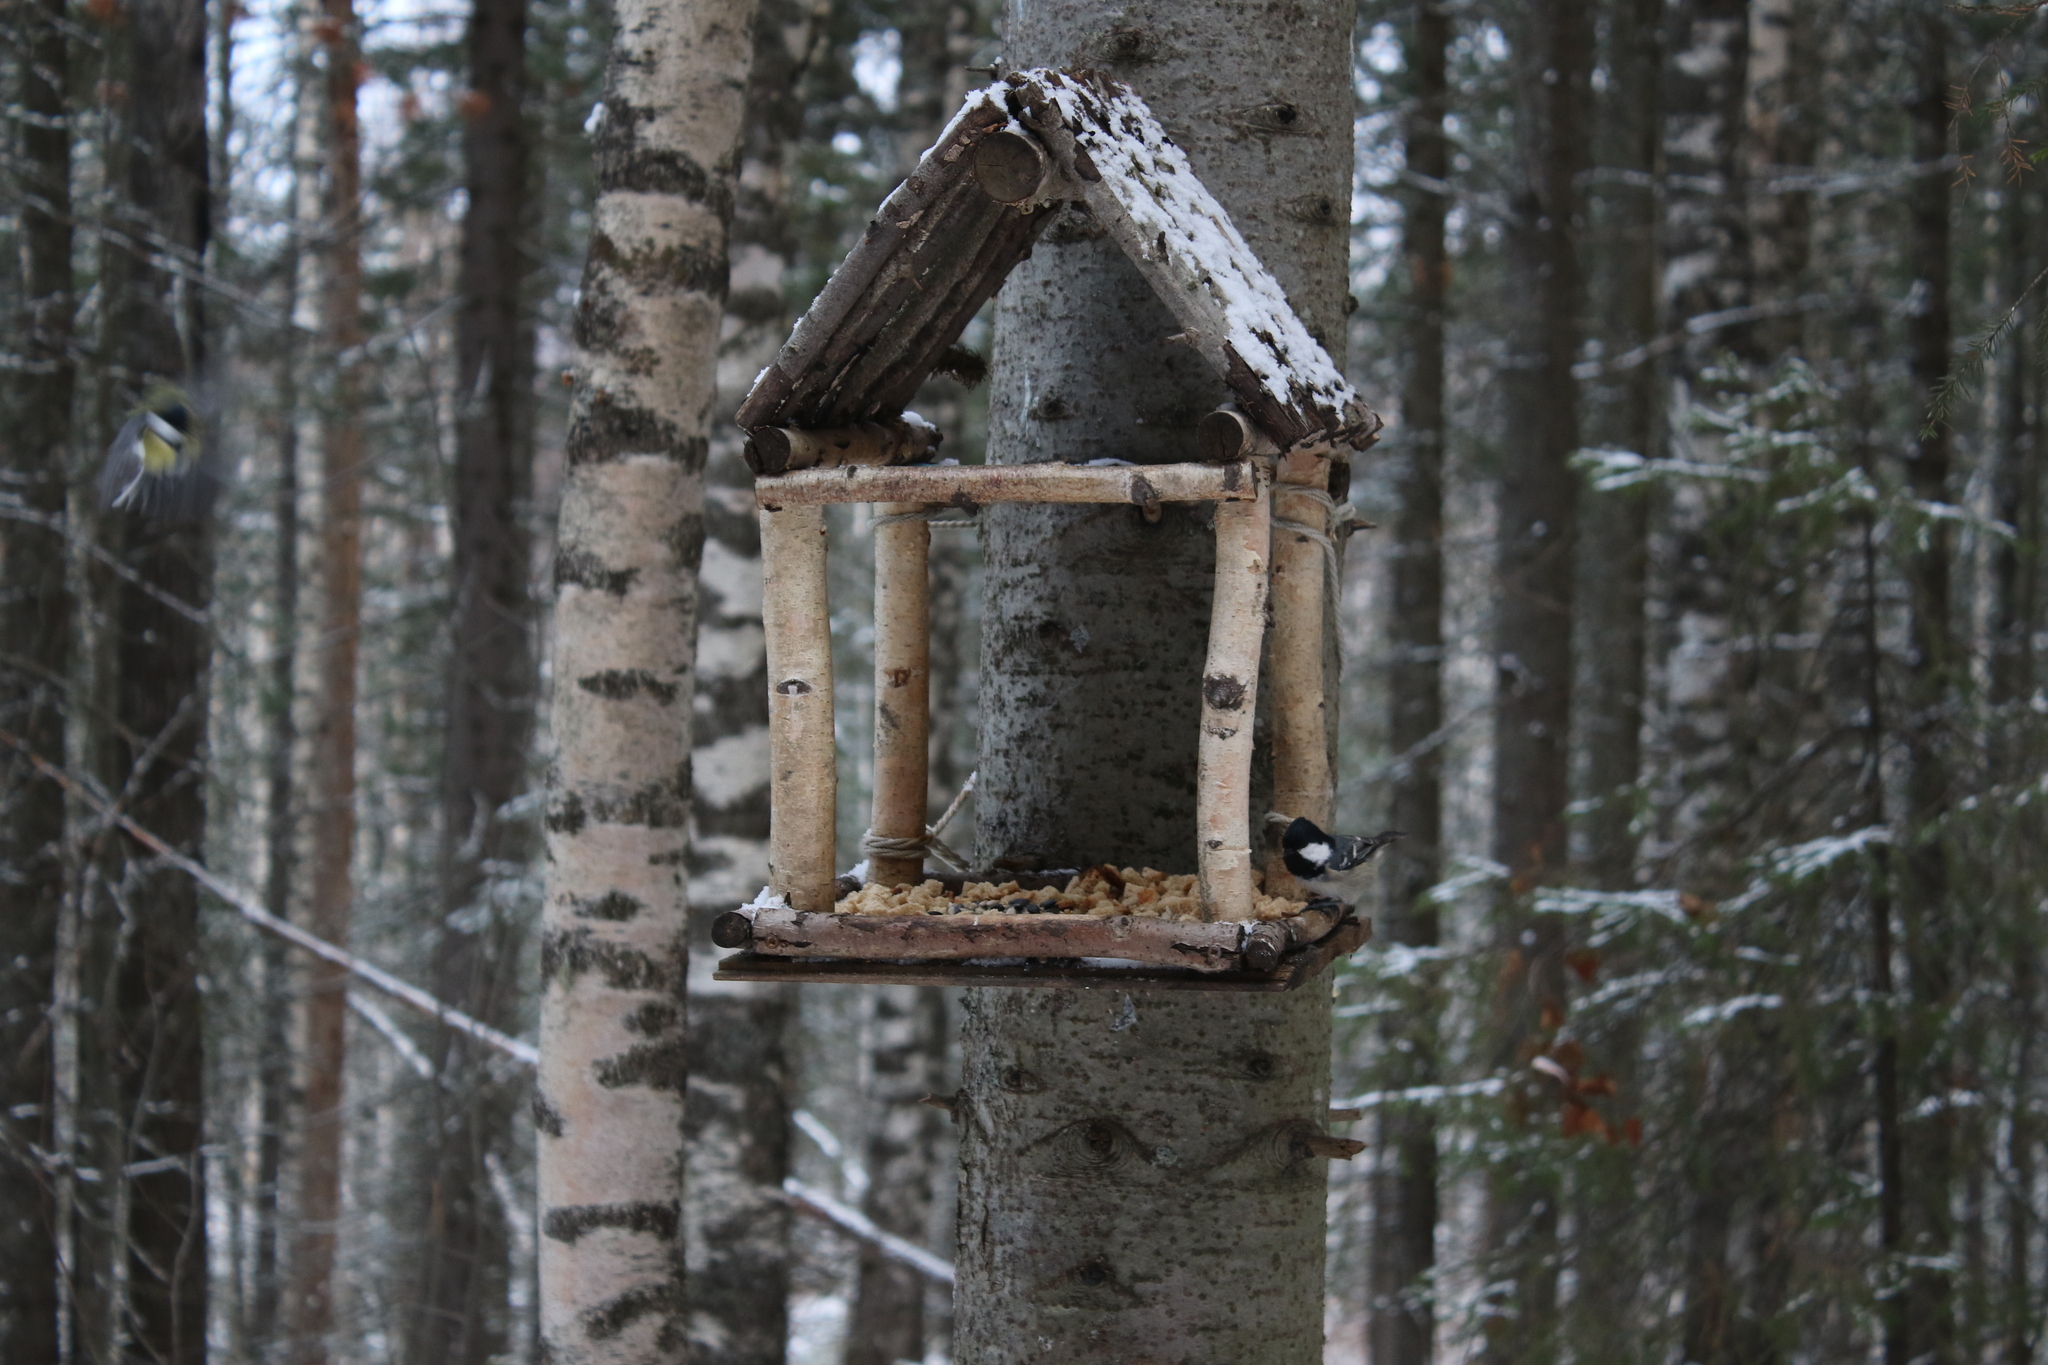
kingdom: Animalia
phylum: Chordata
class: Aves
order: Passeriformes
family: Paridae
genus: Periparus
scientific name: Periparus ater
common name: Coal tit
